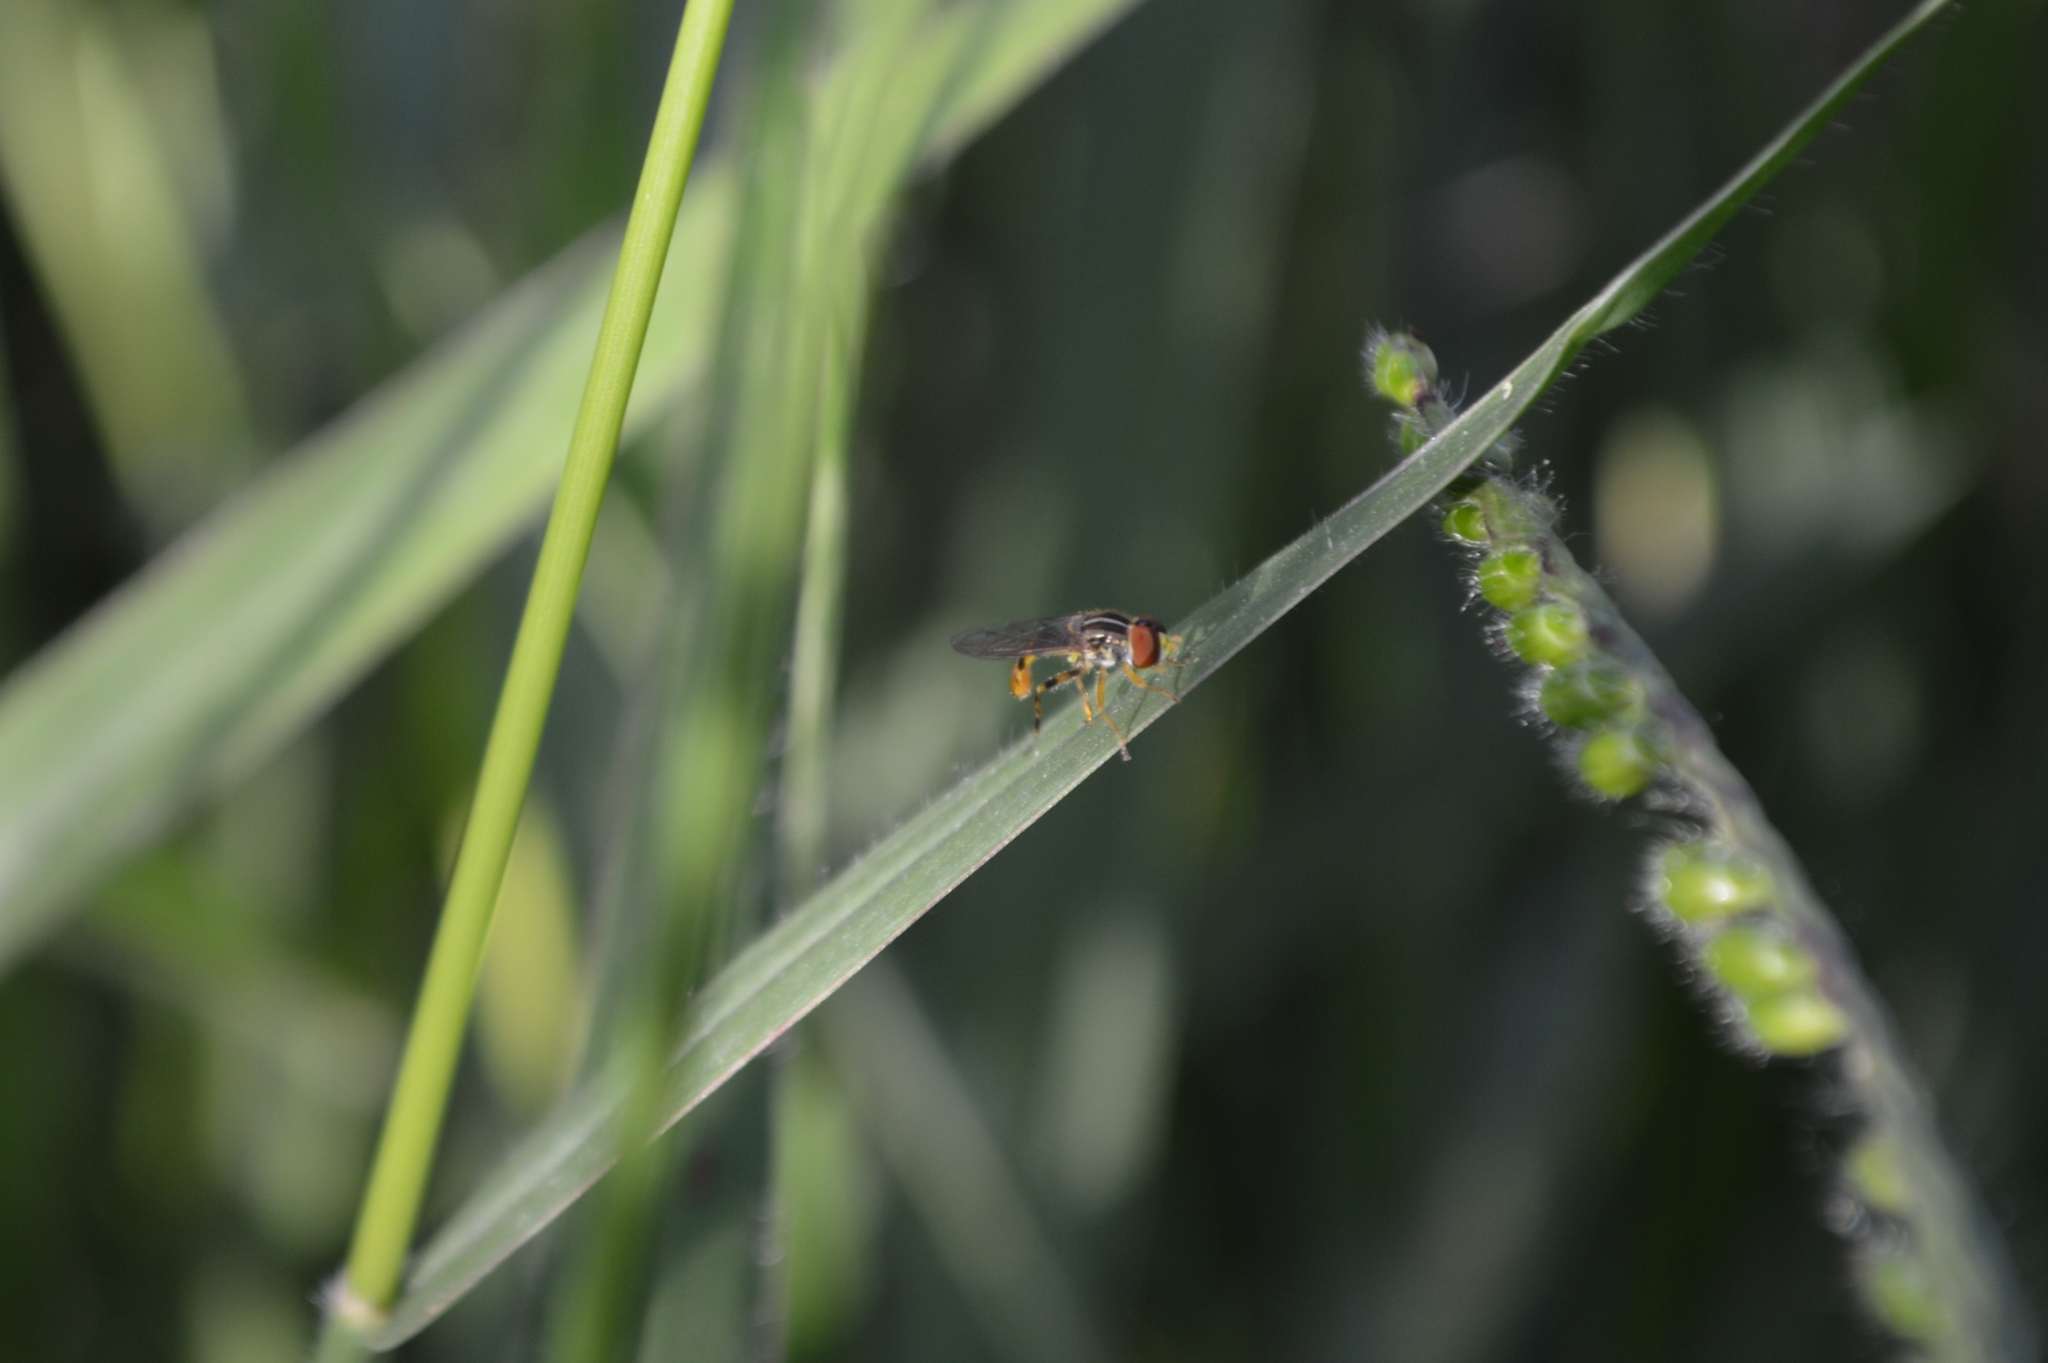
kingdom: Animalia
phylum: Arthropoda
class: Insecta
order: Diptera
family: Syrphidae
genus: Toxomerus
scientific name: Toxomerus
